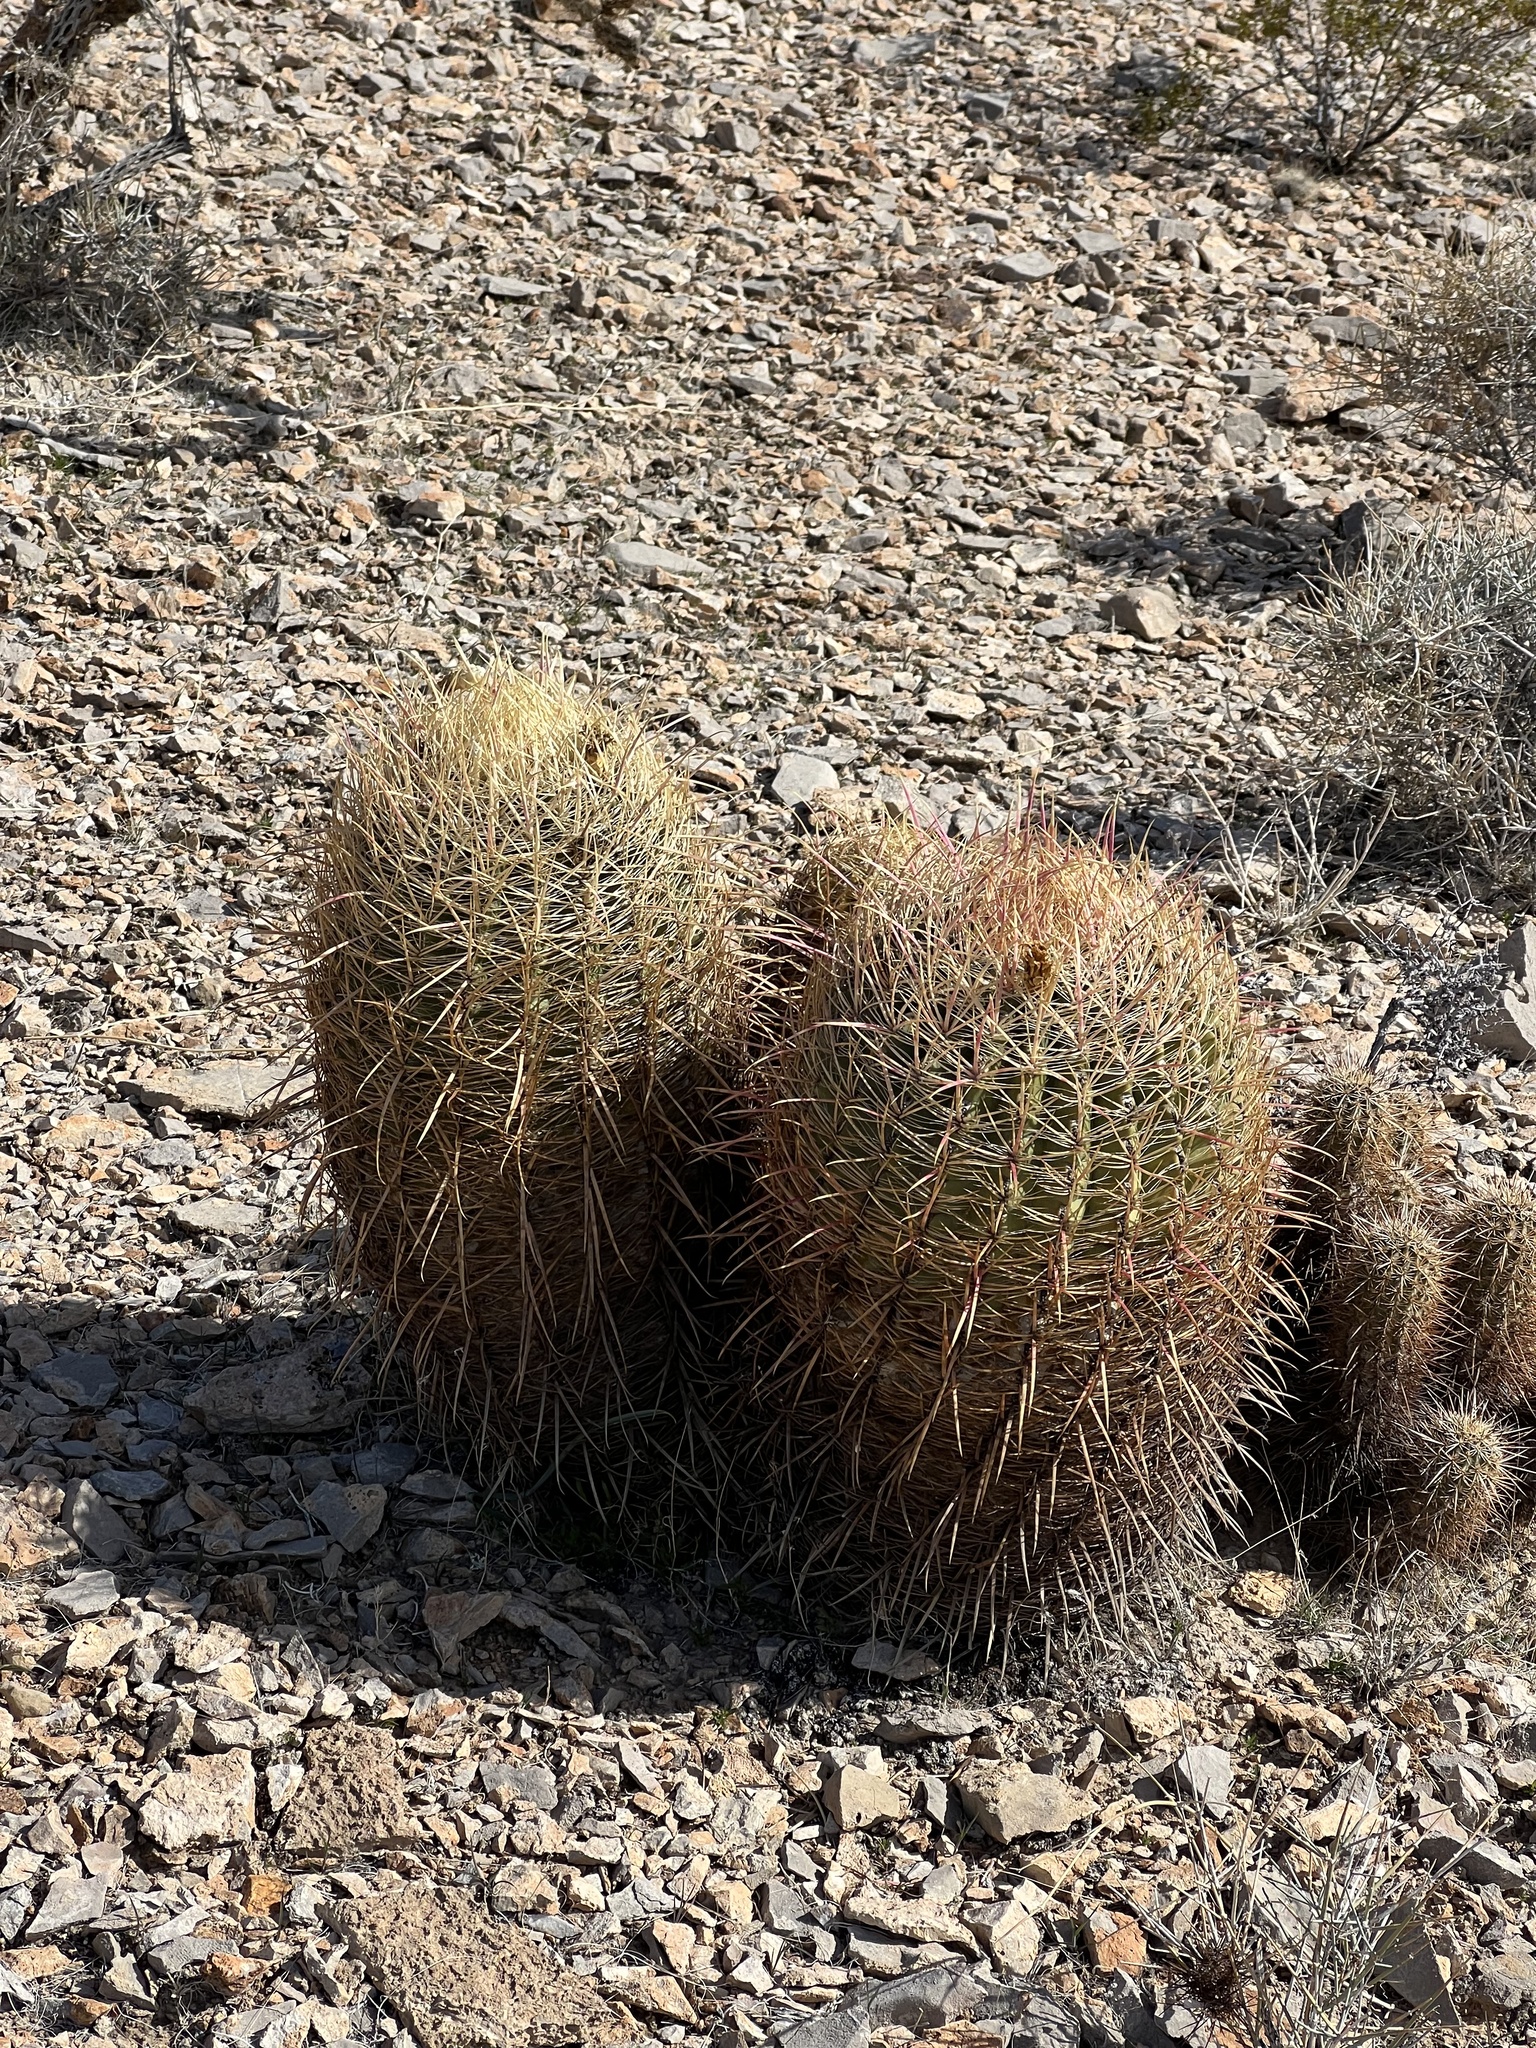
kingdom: Plantae
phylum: Tracheophyta
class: Magnoliopsida
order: Caryophyllales
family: Cactaceae
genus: Ferocactus
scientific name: Ferocactus cylindraceus
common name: California barrel cactus
